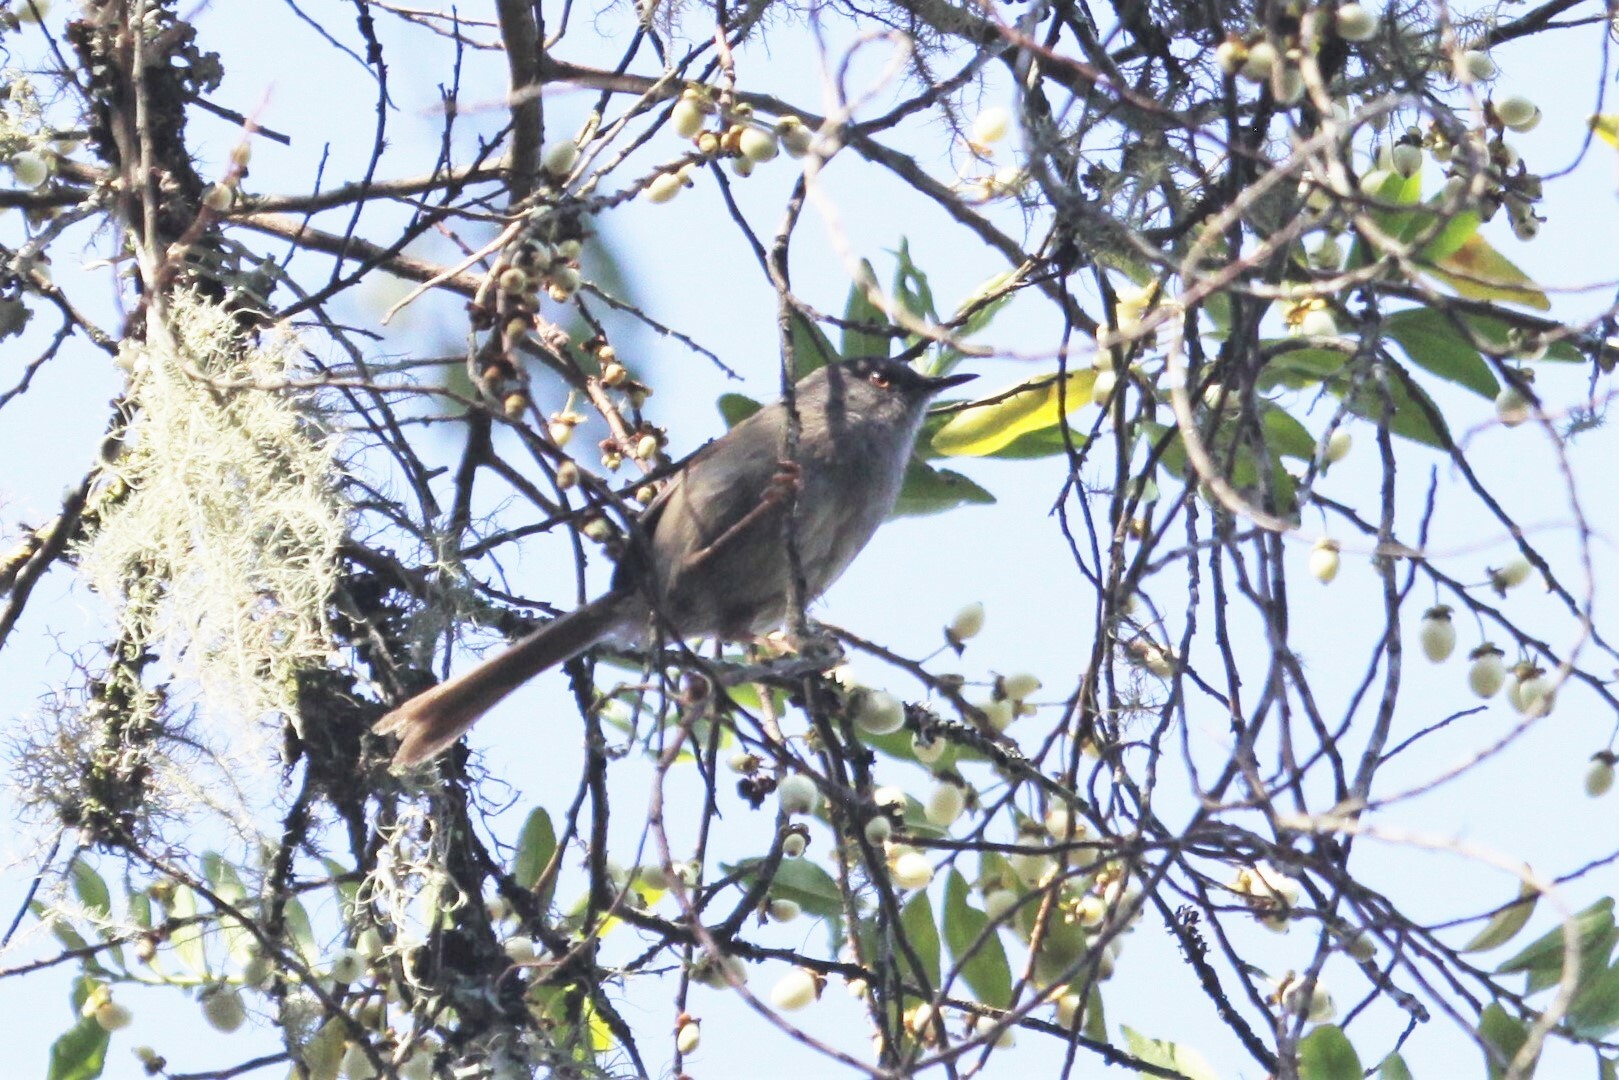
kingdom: Animalia
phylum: Chordata
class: Aves
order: Passeriformes
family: Cisticolidae
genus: Oreophilais
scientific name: Oreophilais robertsi
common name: Roberts's warbler
